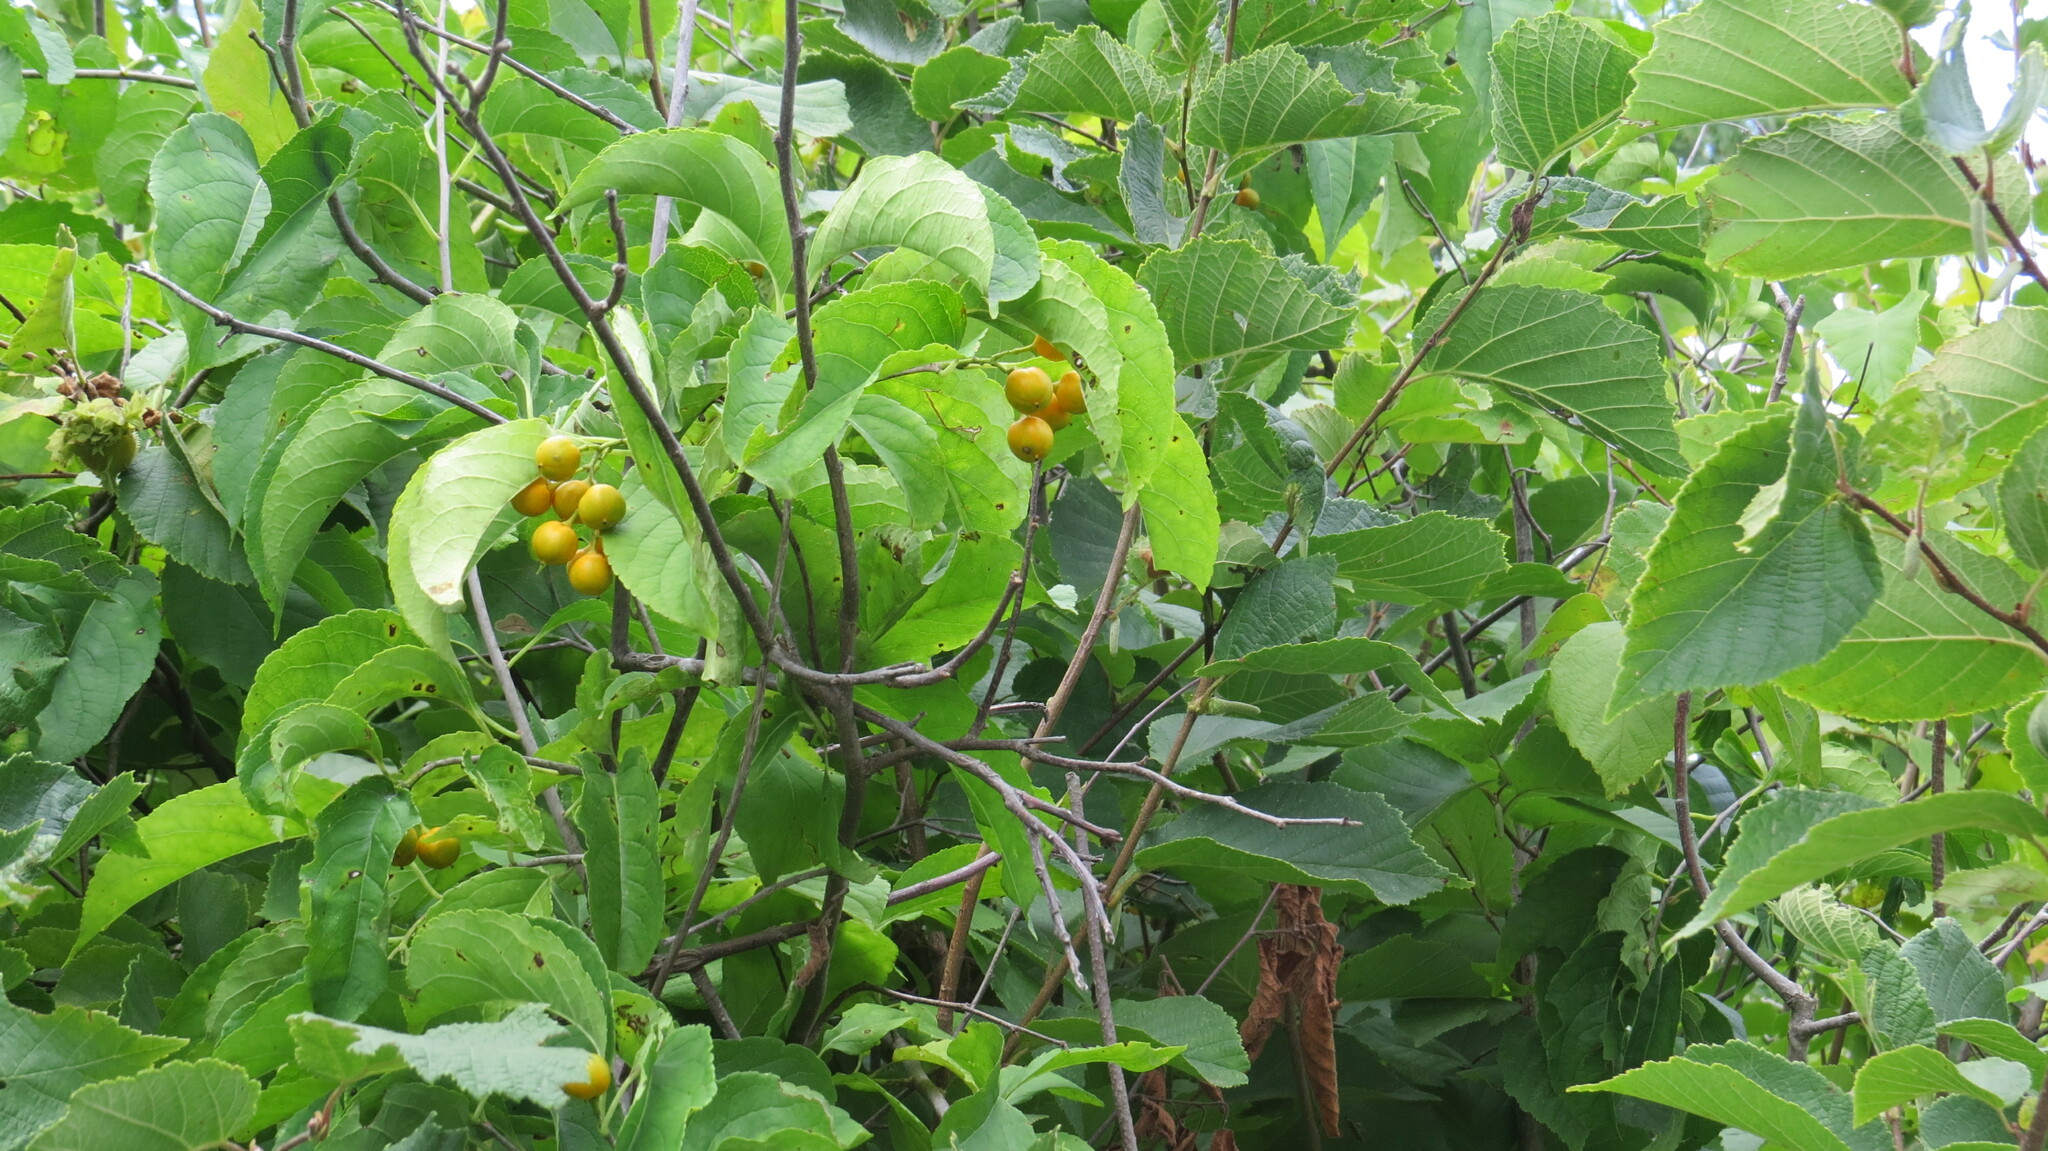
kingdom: Plantae
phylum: Tracheophyta
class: Magnoliopsida
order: Celastrales
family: Celastraceae
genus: Celastrus
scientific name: Celastrus scandens
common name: American bittersweet
